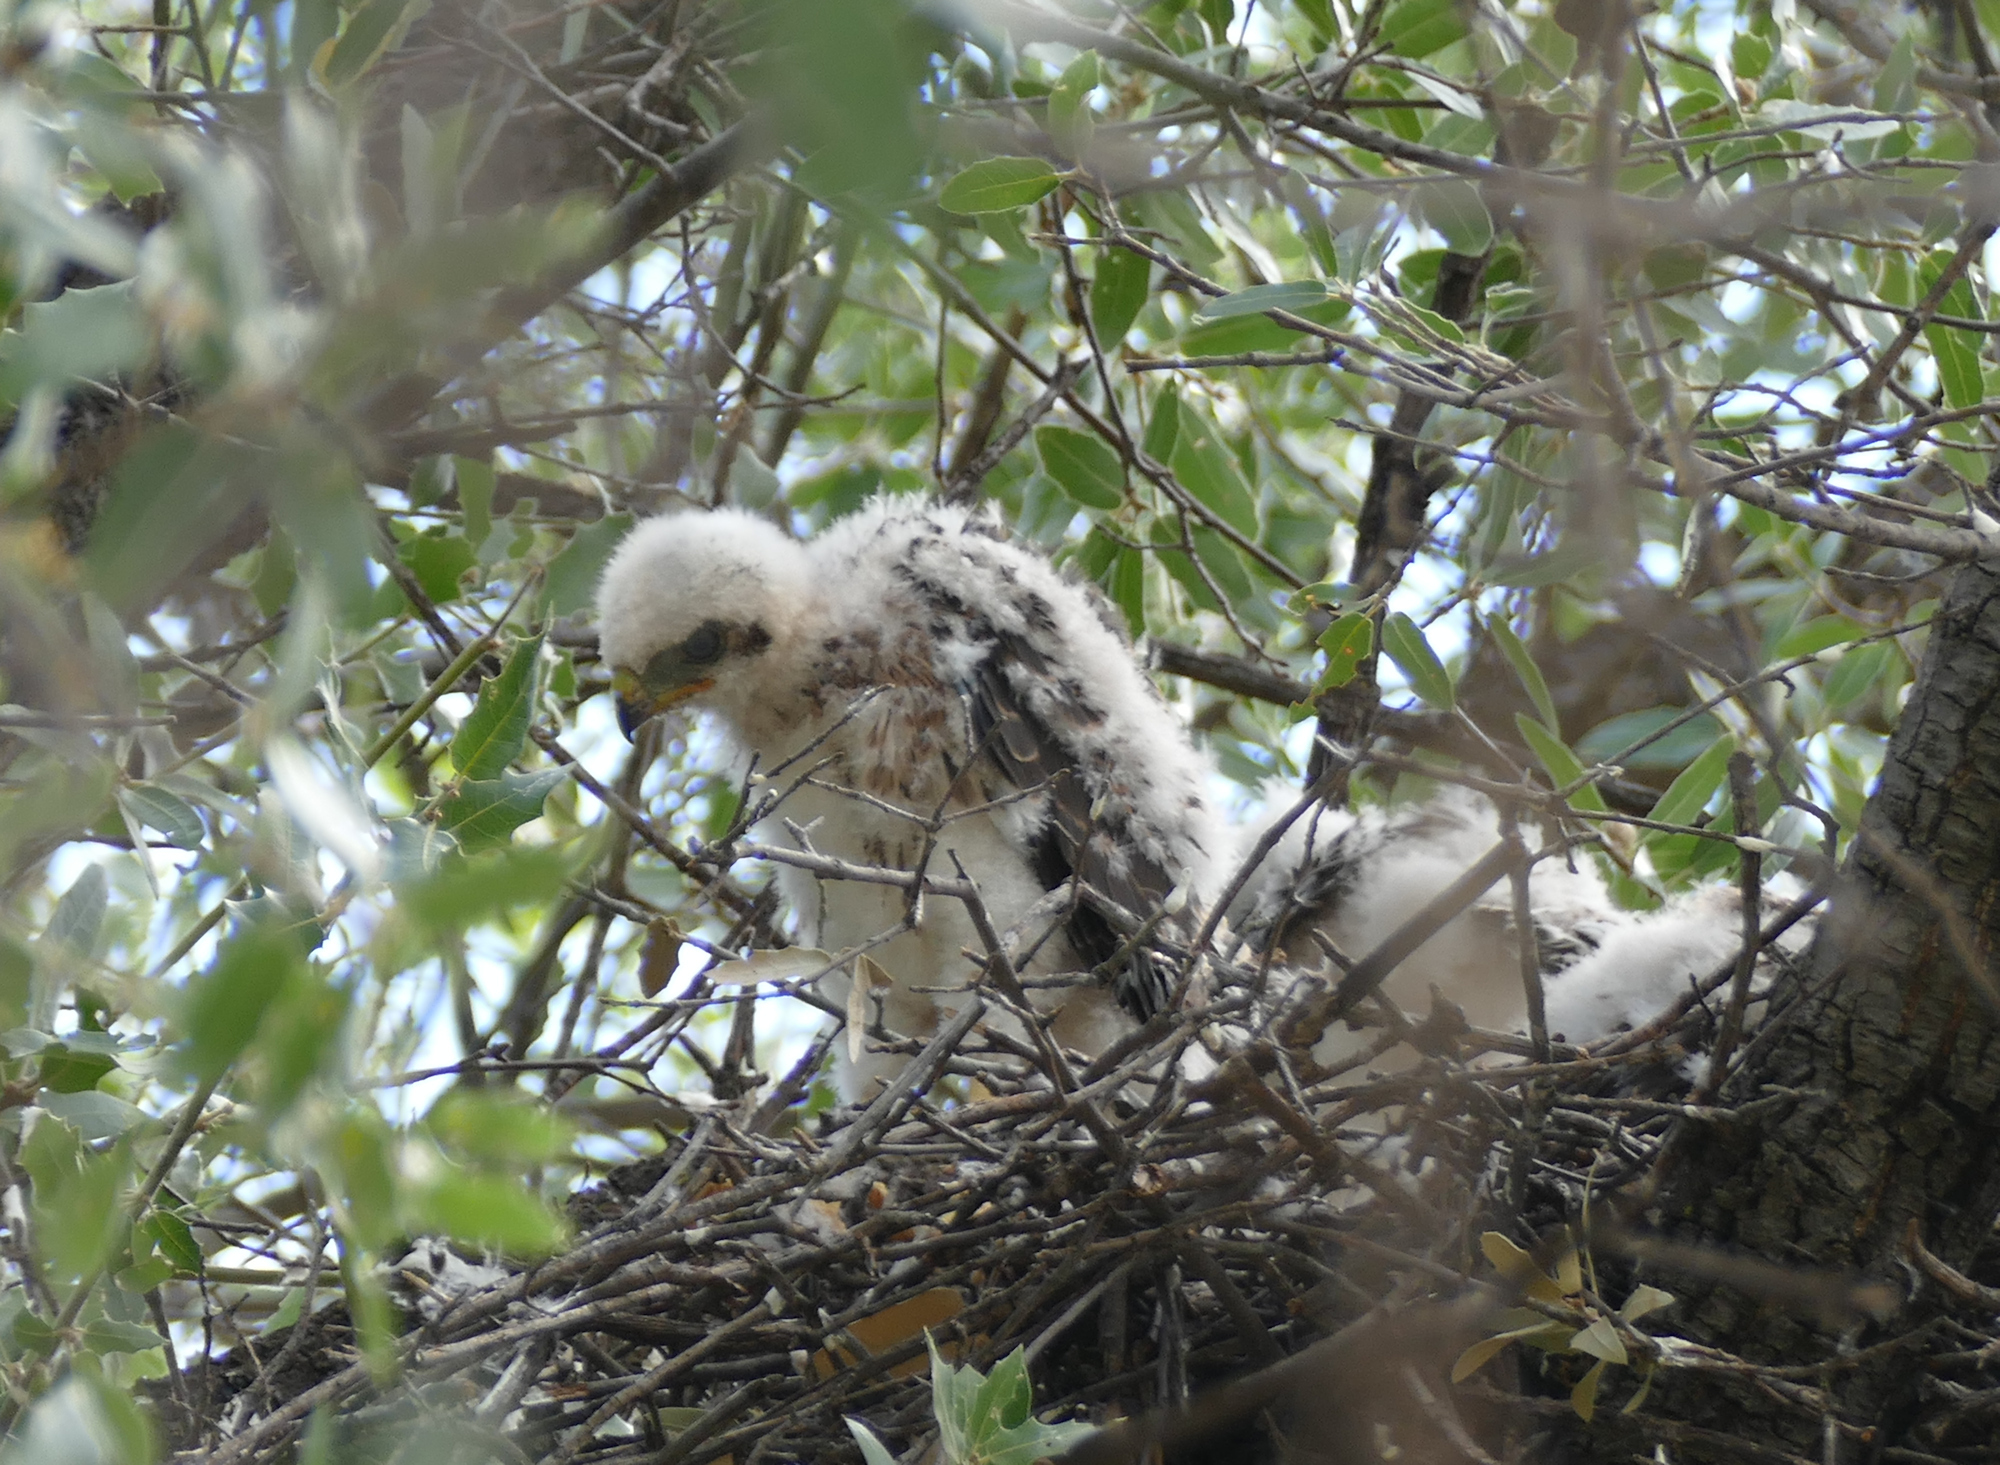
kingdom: Animalia
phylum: Chordata
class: Aves
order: Accipitriformes
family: Accipitridae
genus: Accipiter
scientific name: Accipiter cooperii
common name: Cooper's hawk
